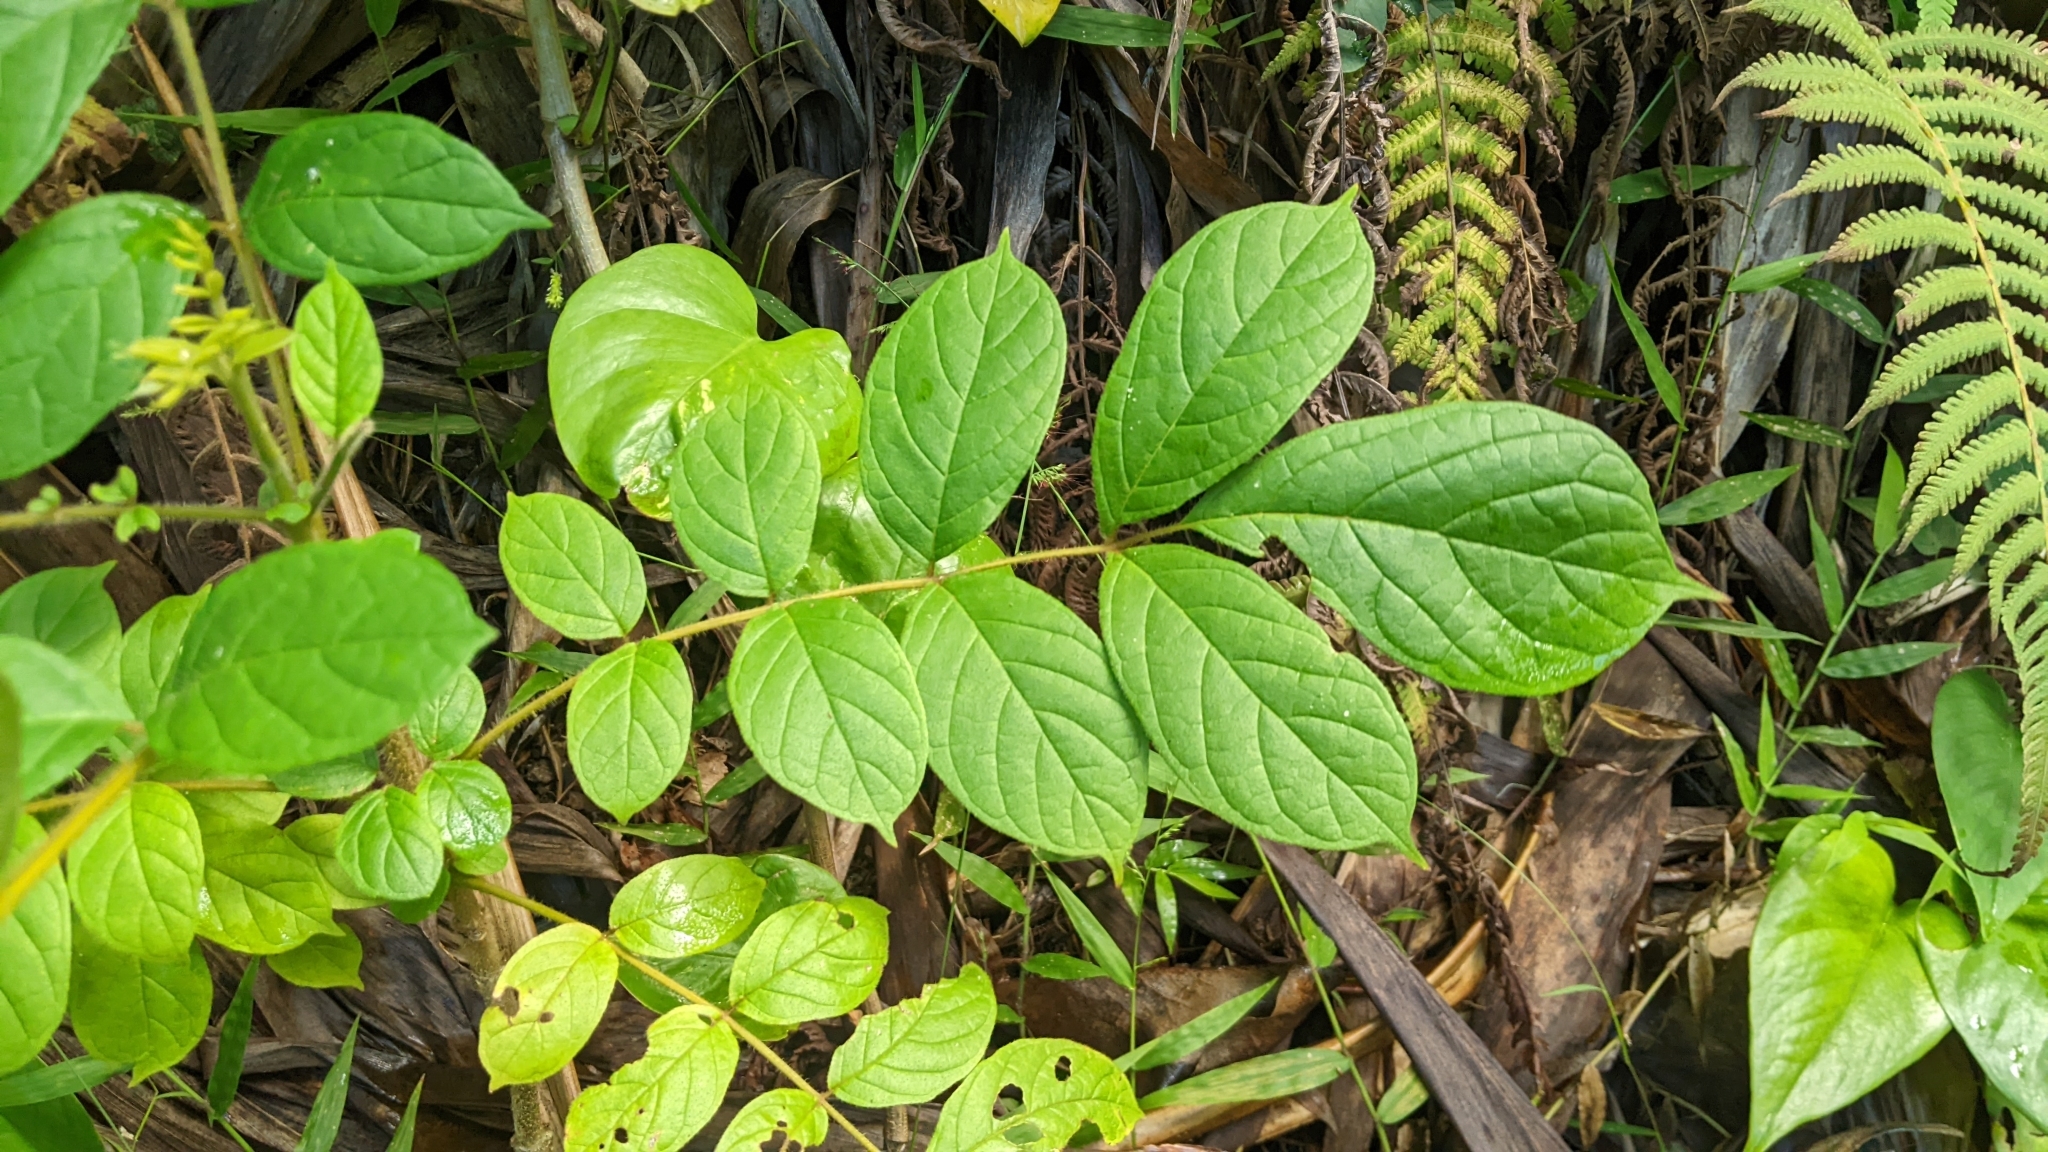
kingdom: Plantae
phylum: Tracheophyta
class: Magnoliopsida
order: Lamiales
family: Bignoniaceae
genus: Spathodea
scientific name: Spathodea campanulata
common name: African tuliptree
